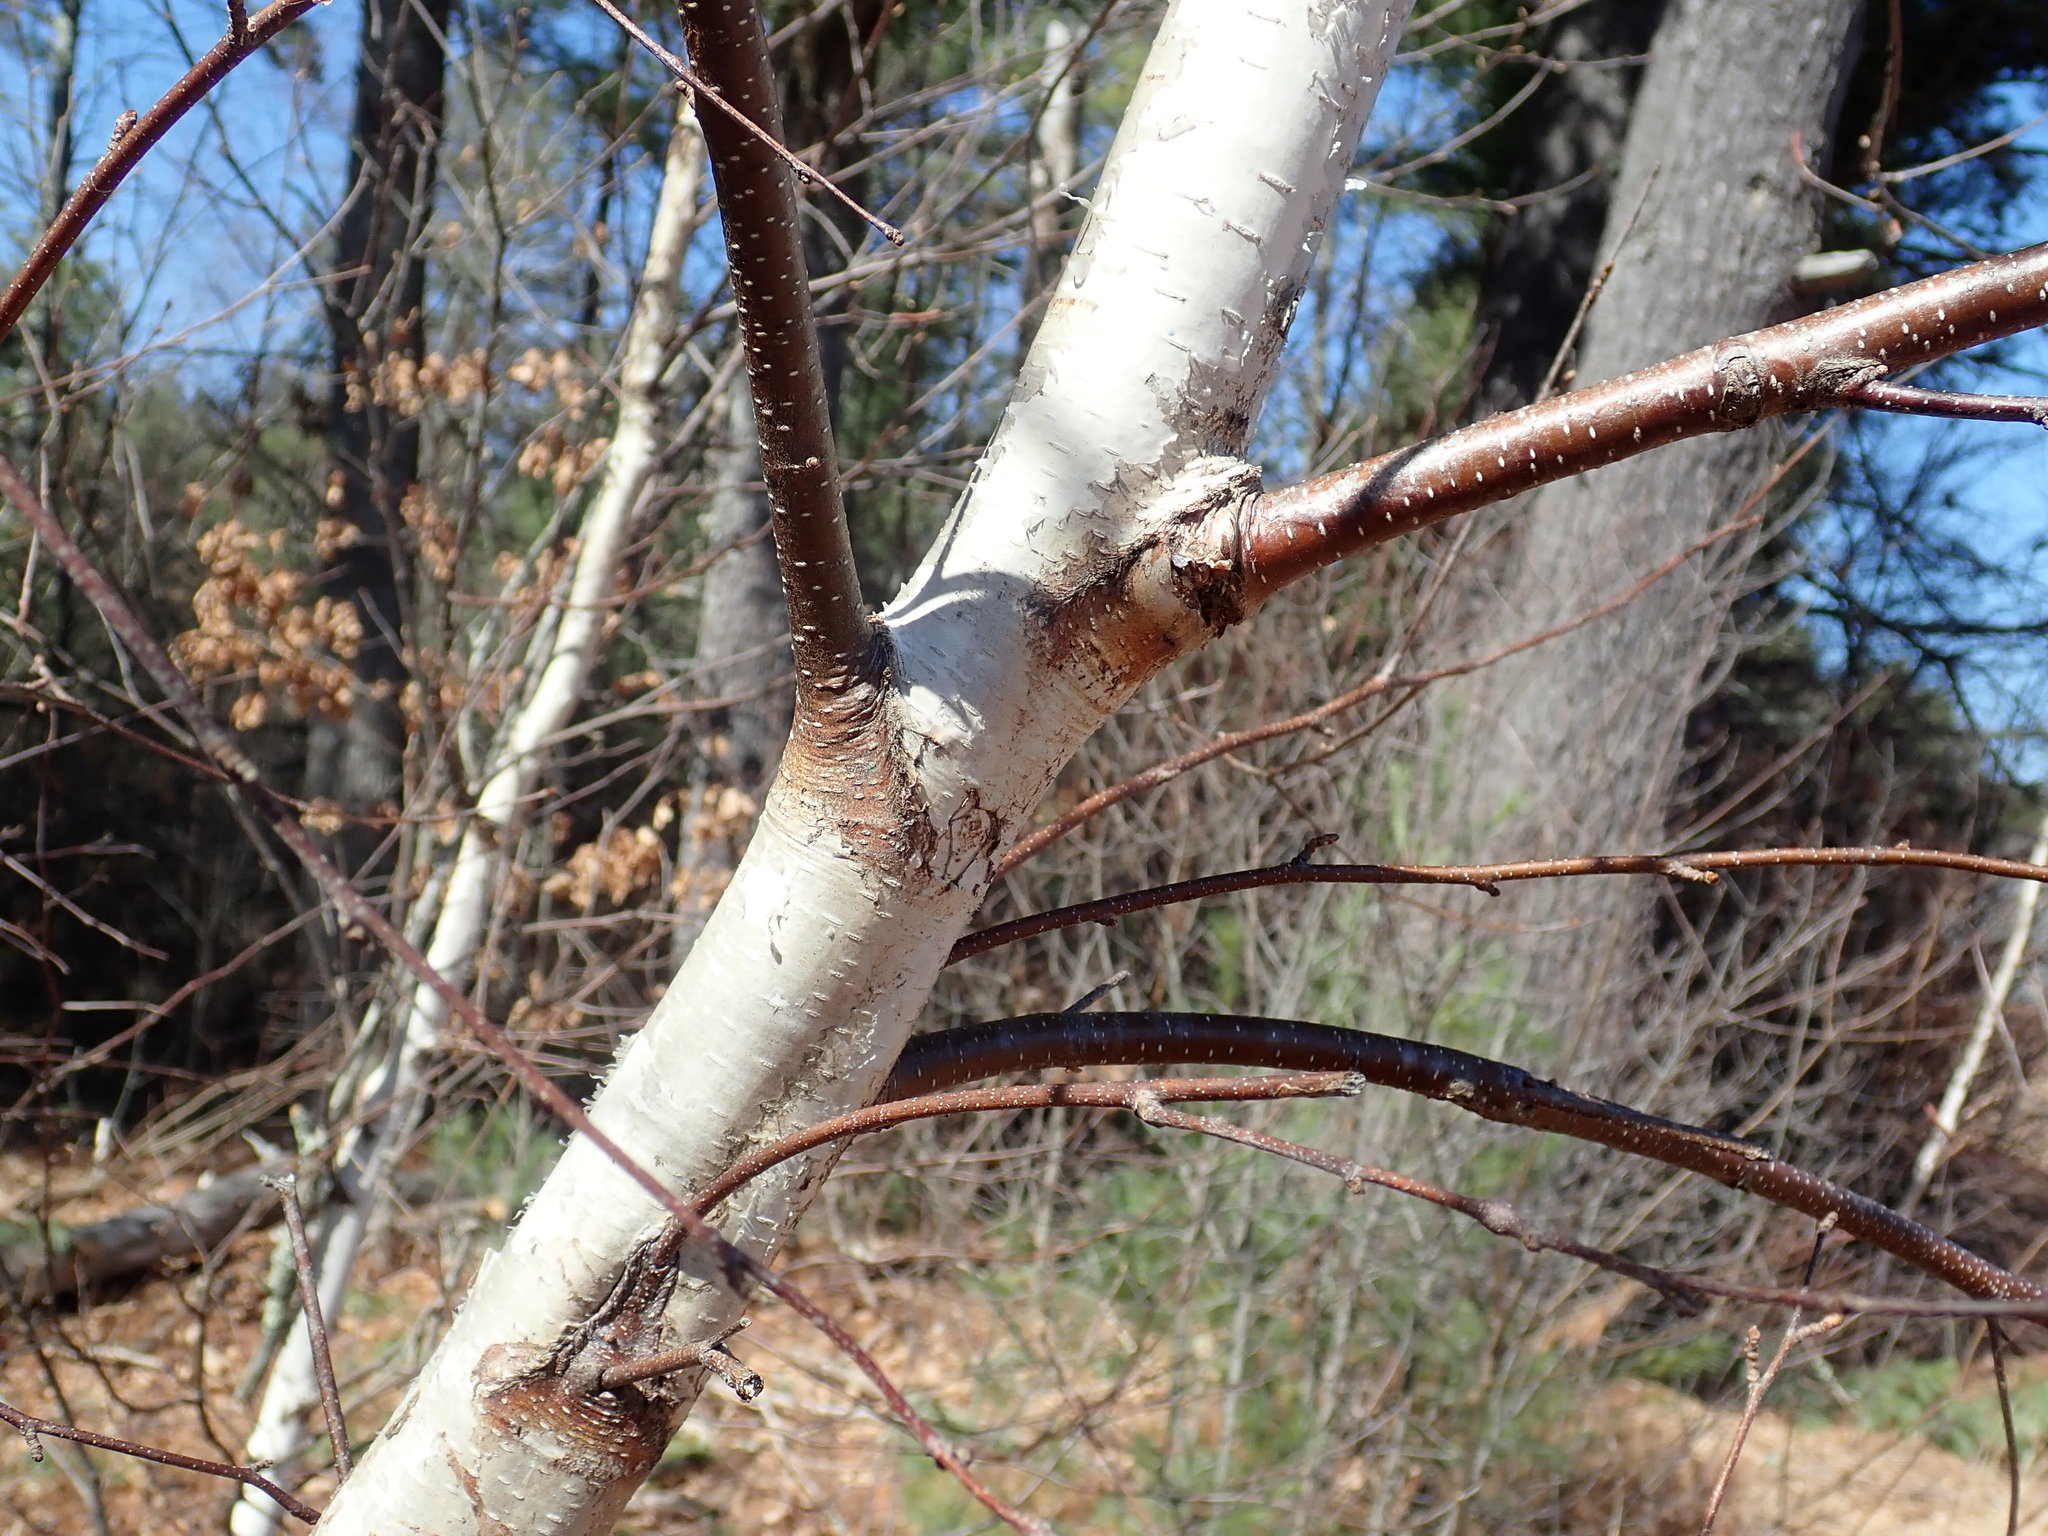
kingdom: Plantae
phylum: Tracheophyta
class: Magnoliopsida
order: Fagales
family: Betulaceae
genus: Betula
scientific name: Betula populifolia
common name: Fire birch
